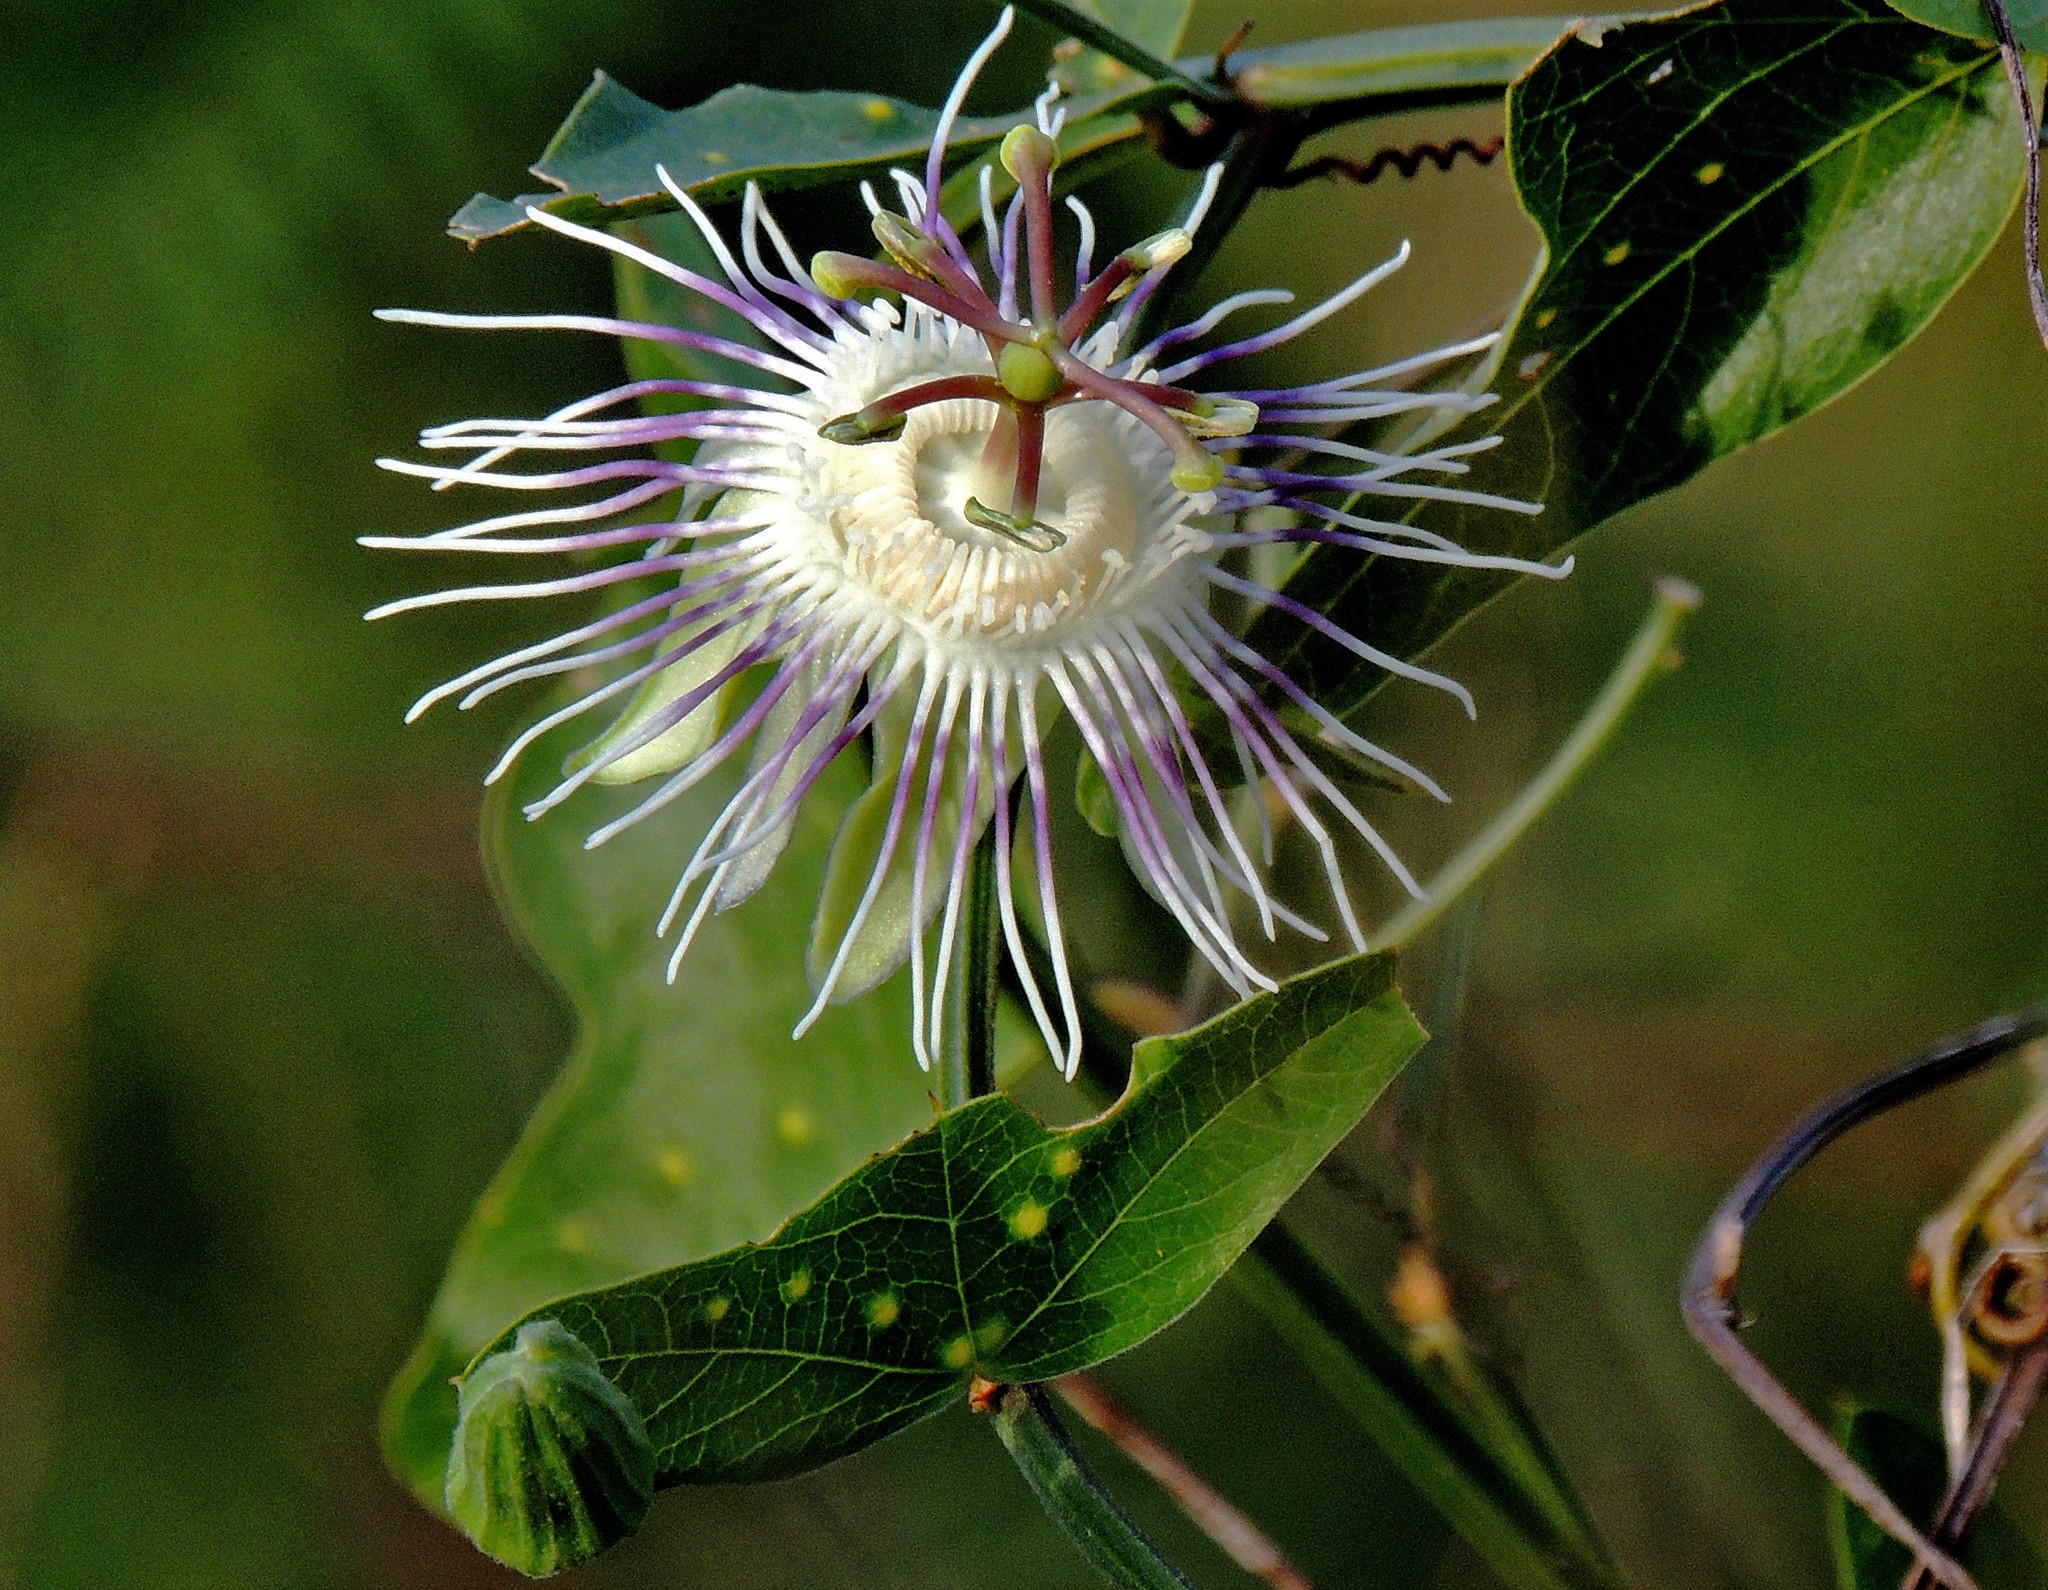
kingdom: Plantae
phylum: Tracheophyta
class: Magnoliopsida
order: Malpighiales
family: Passifloraceae
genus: Passiflora
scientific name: Passiflora misera
